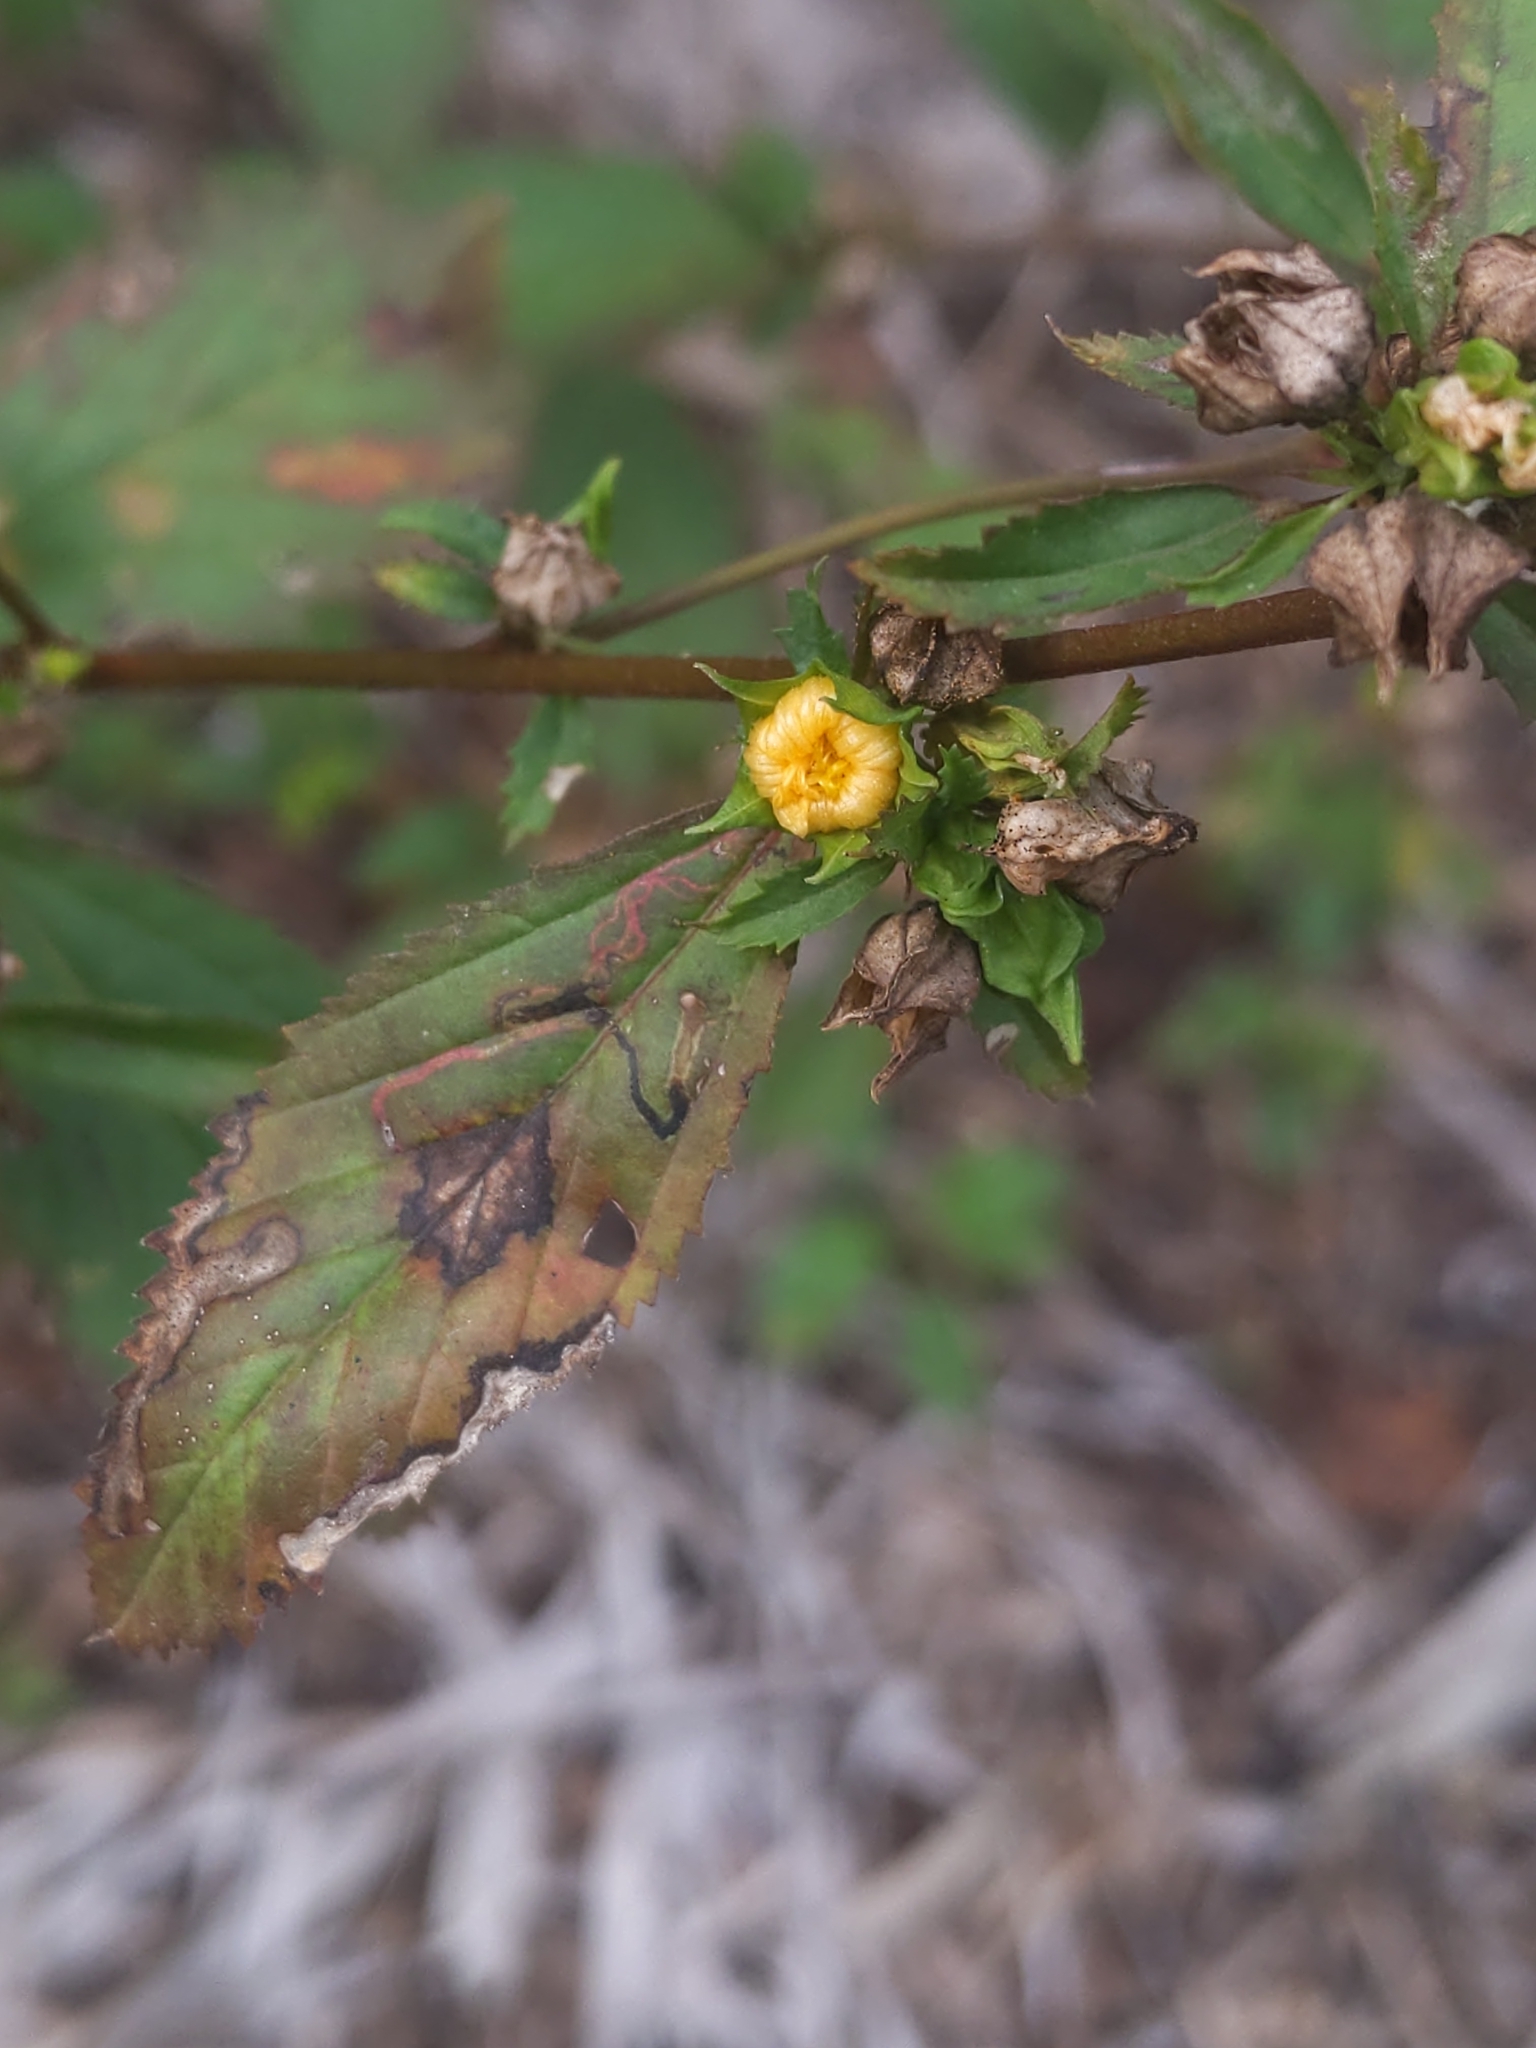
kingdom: Plantae
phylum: Tracheophyta
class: Magnoliopsida
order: Malvales
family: Malvaceae
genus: Sida
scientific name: Sida rhombifolia
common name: Queensland-hemp
